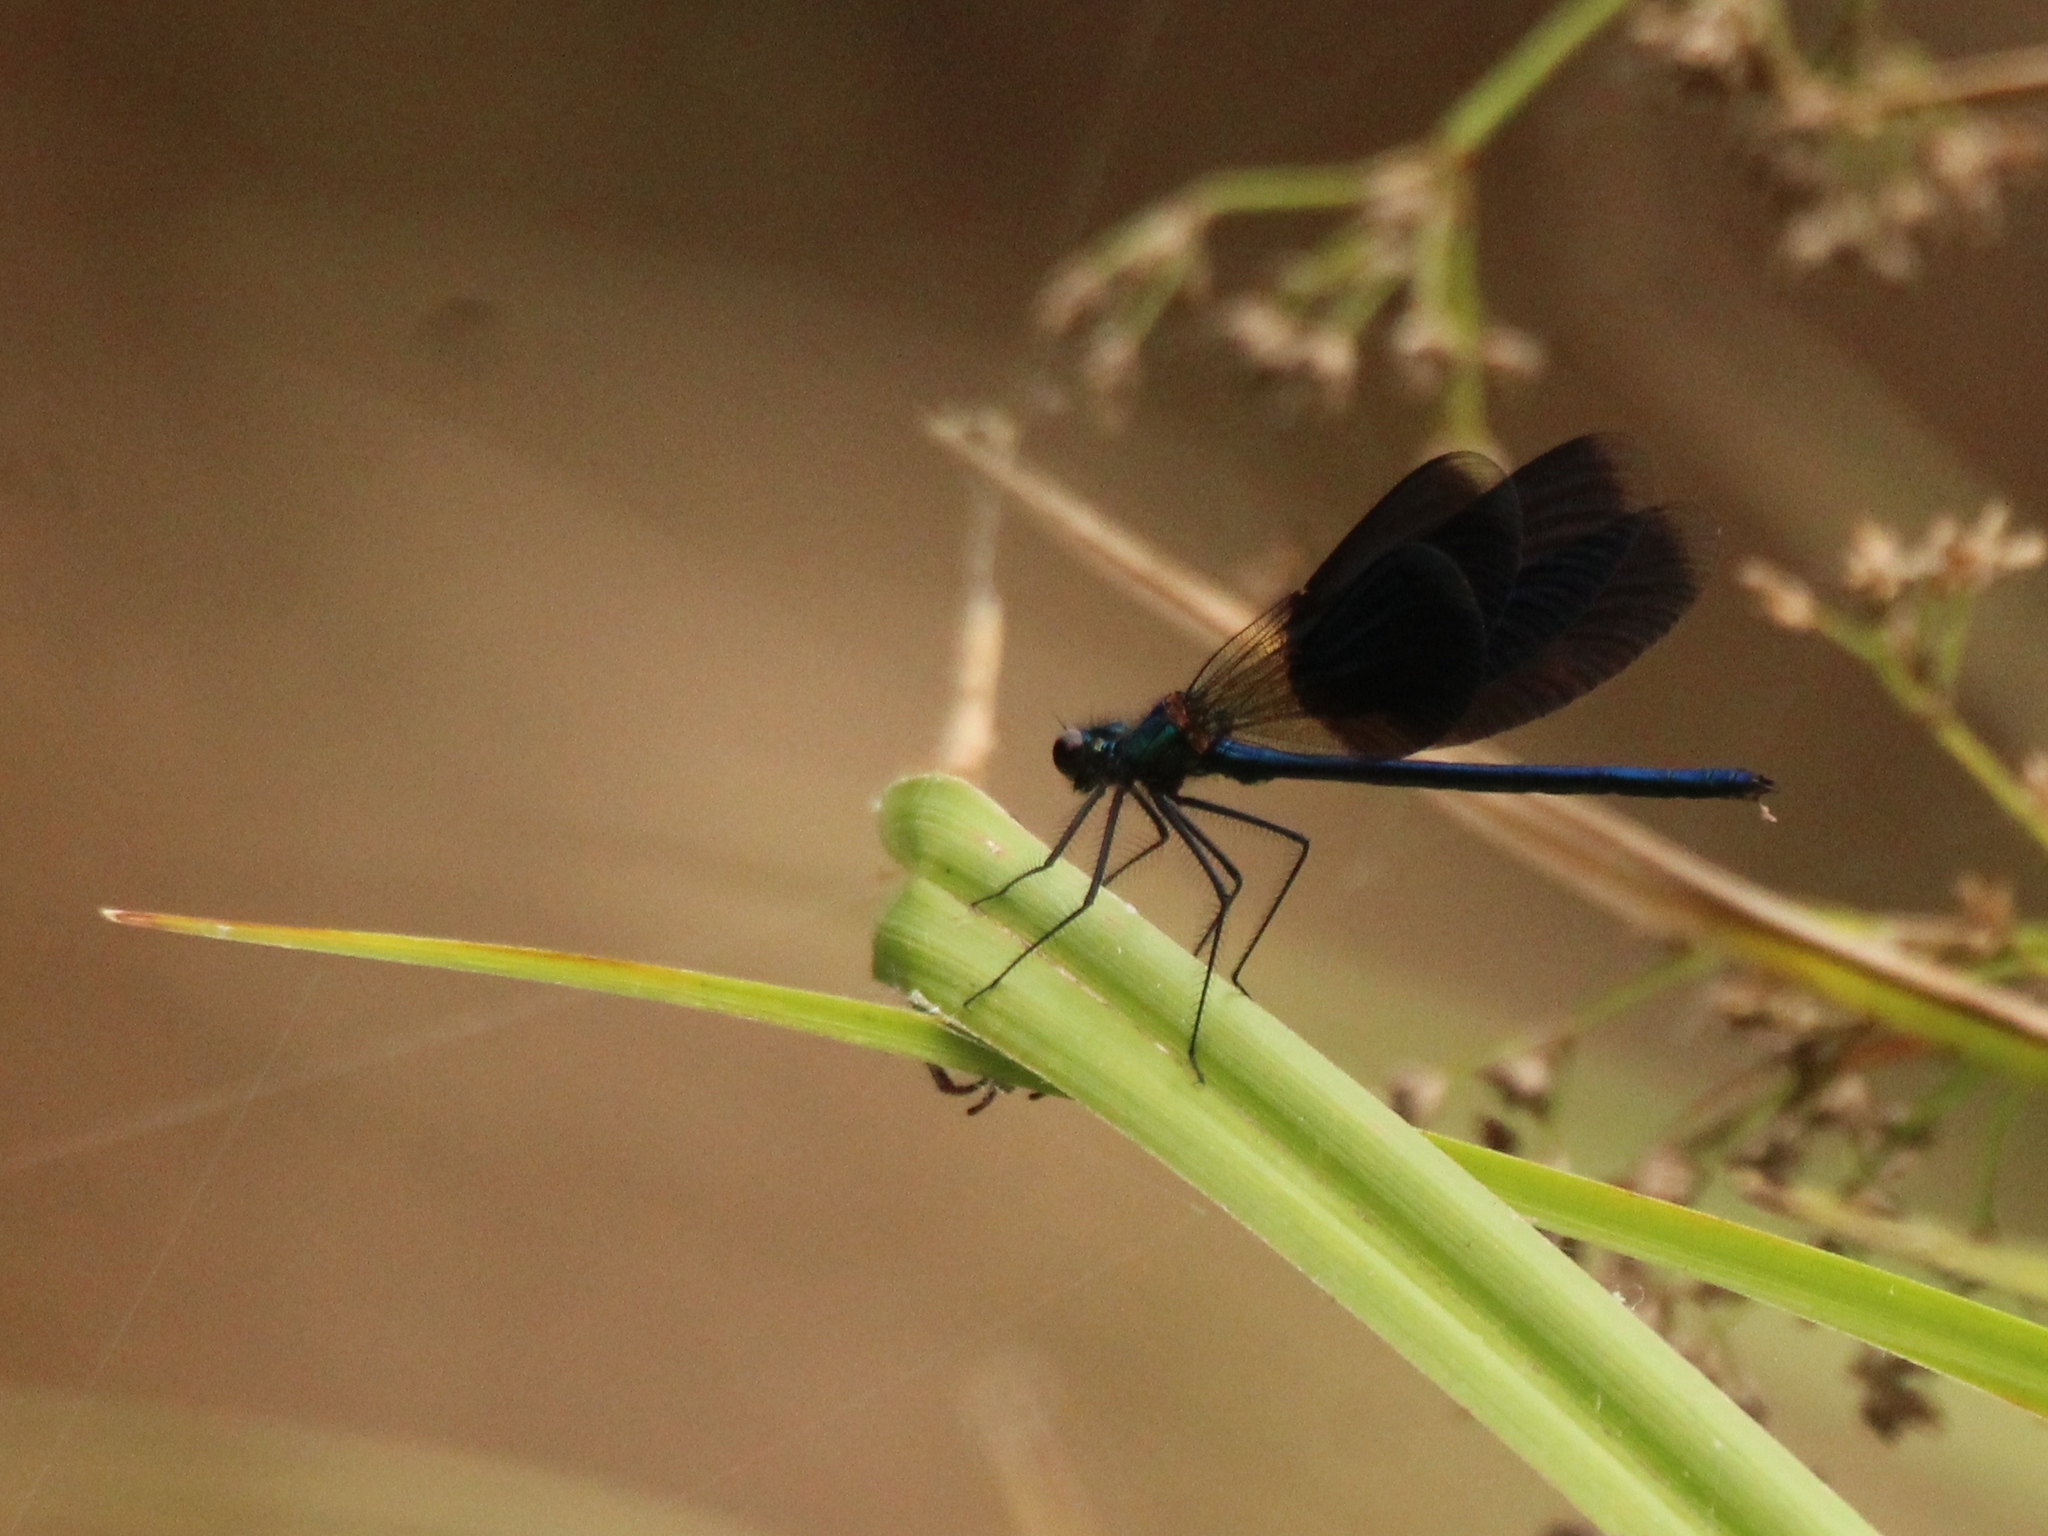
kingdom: Animalia
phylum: Arthropoda
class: Insecta
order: Odonata
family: Calopterygidae
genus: Calopteryx
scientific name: Calopteryx splendens
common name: Banded demoiselle
